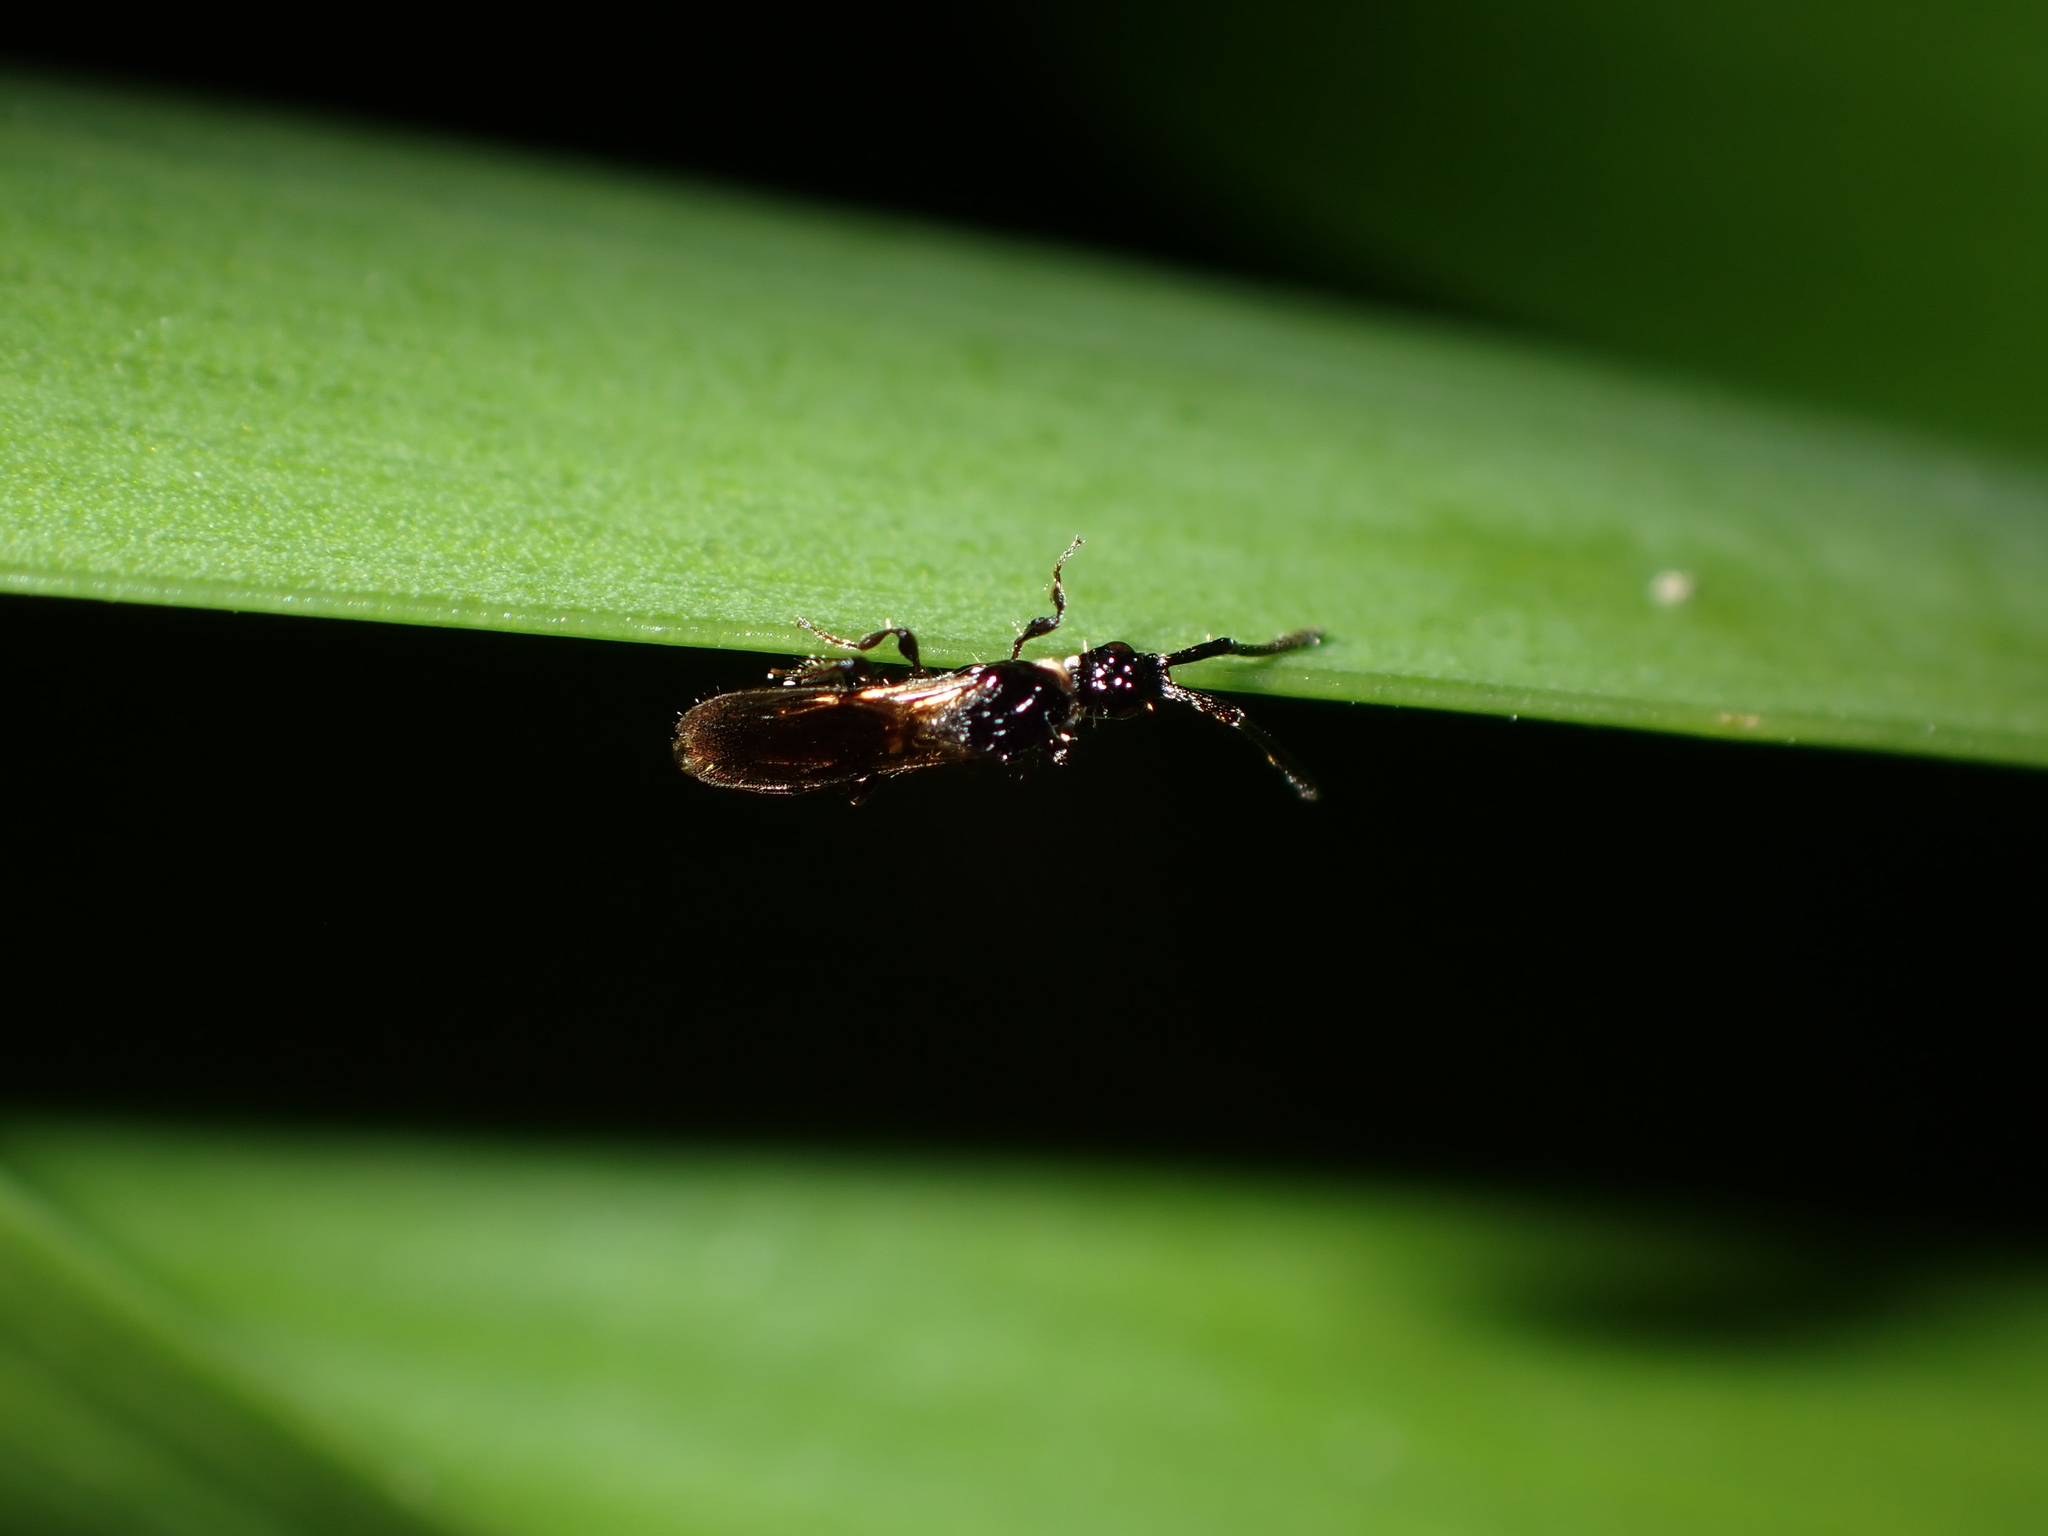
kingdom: Animalia
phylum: Arthropoda
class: Insecta
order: Hymenoptera
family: Diapriidae
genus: Neurogalesus
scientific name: Neurogalesus carinatus
